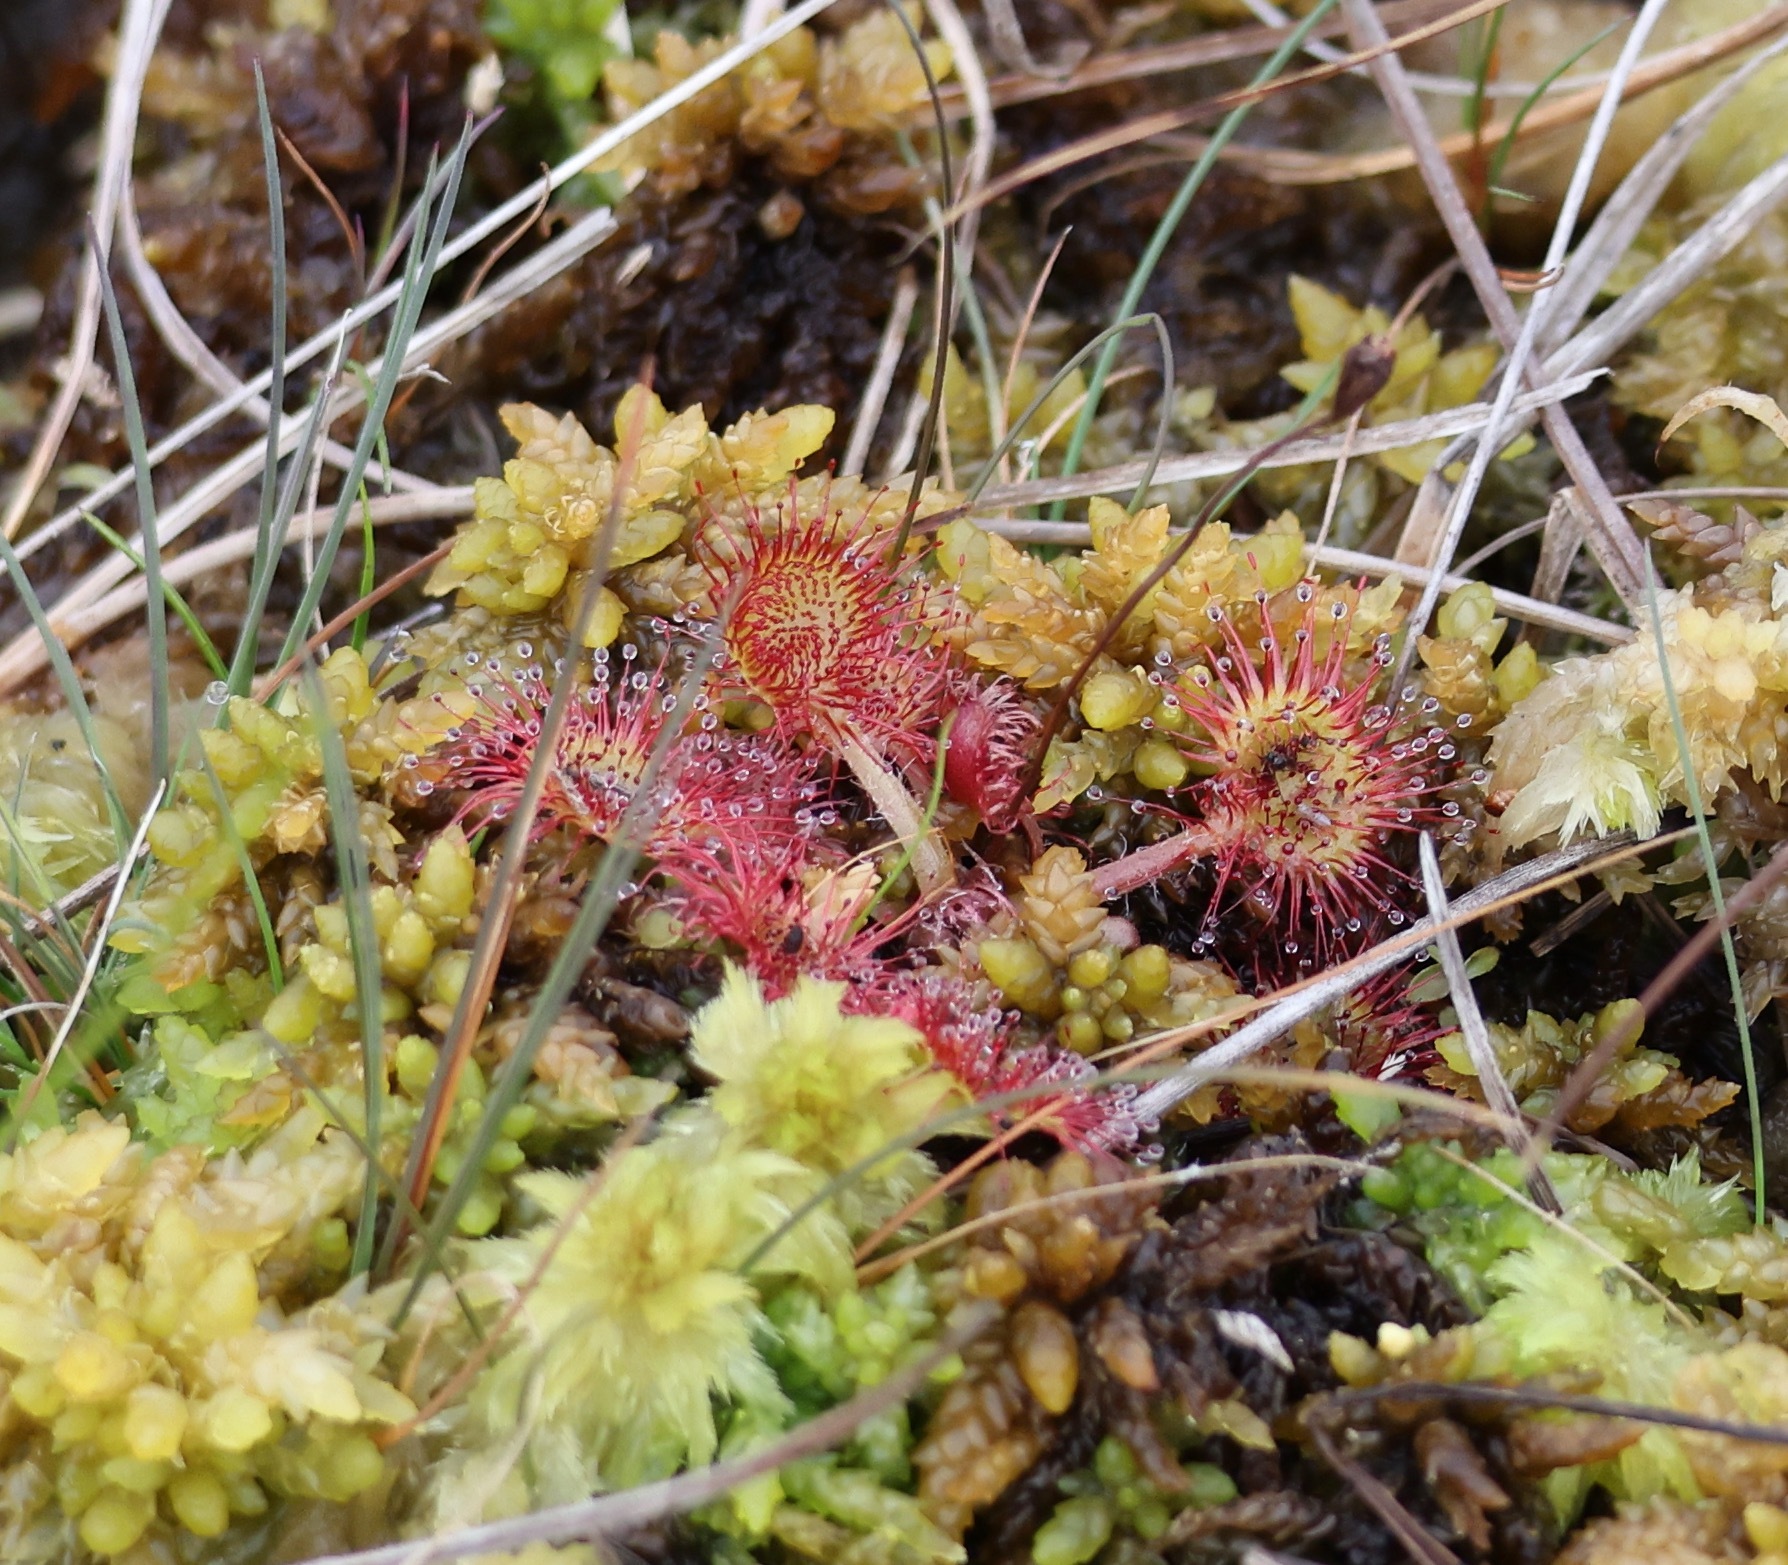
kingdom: Plantae
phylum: Tracheophyta
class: Magnoliopsida
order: Caryophyllales
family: Droseraceae
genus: Drosera
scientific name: Drosera rotundifolia
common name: Round-leaved sundew
